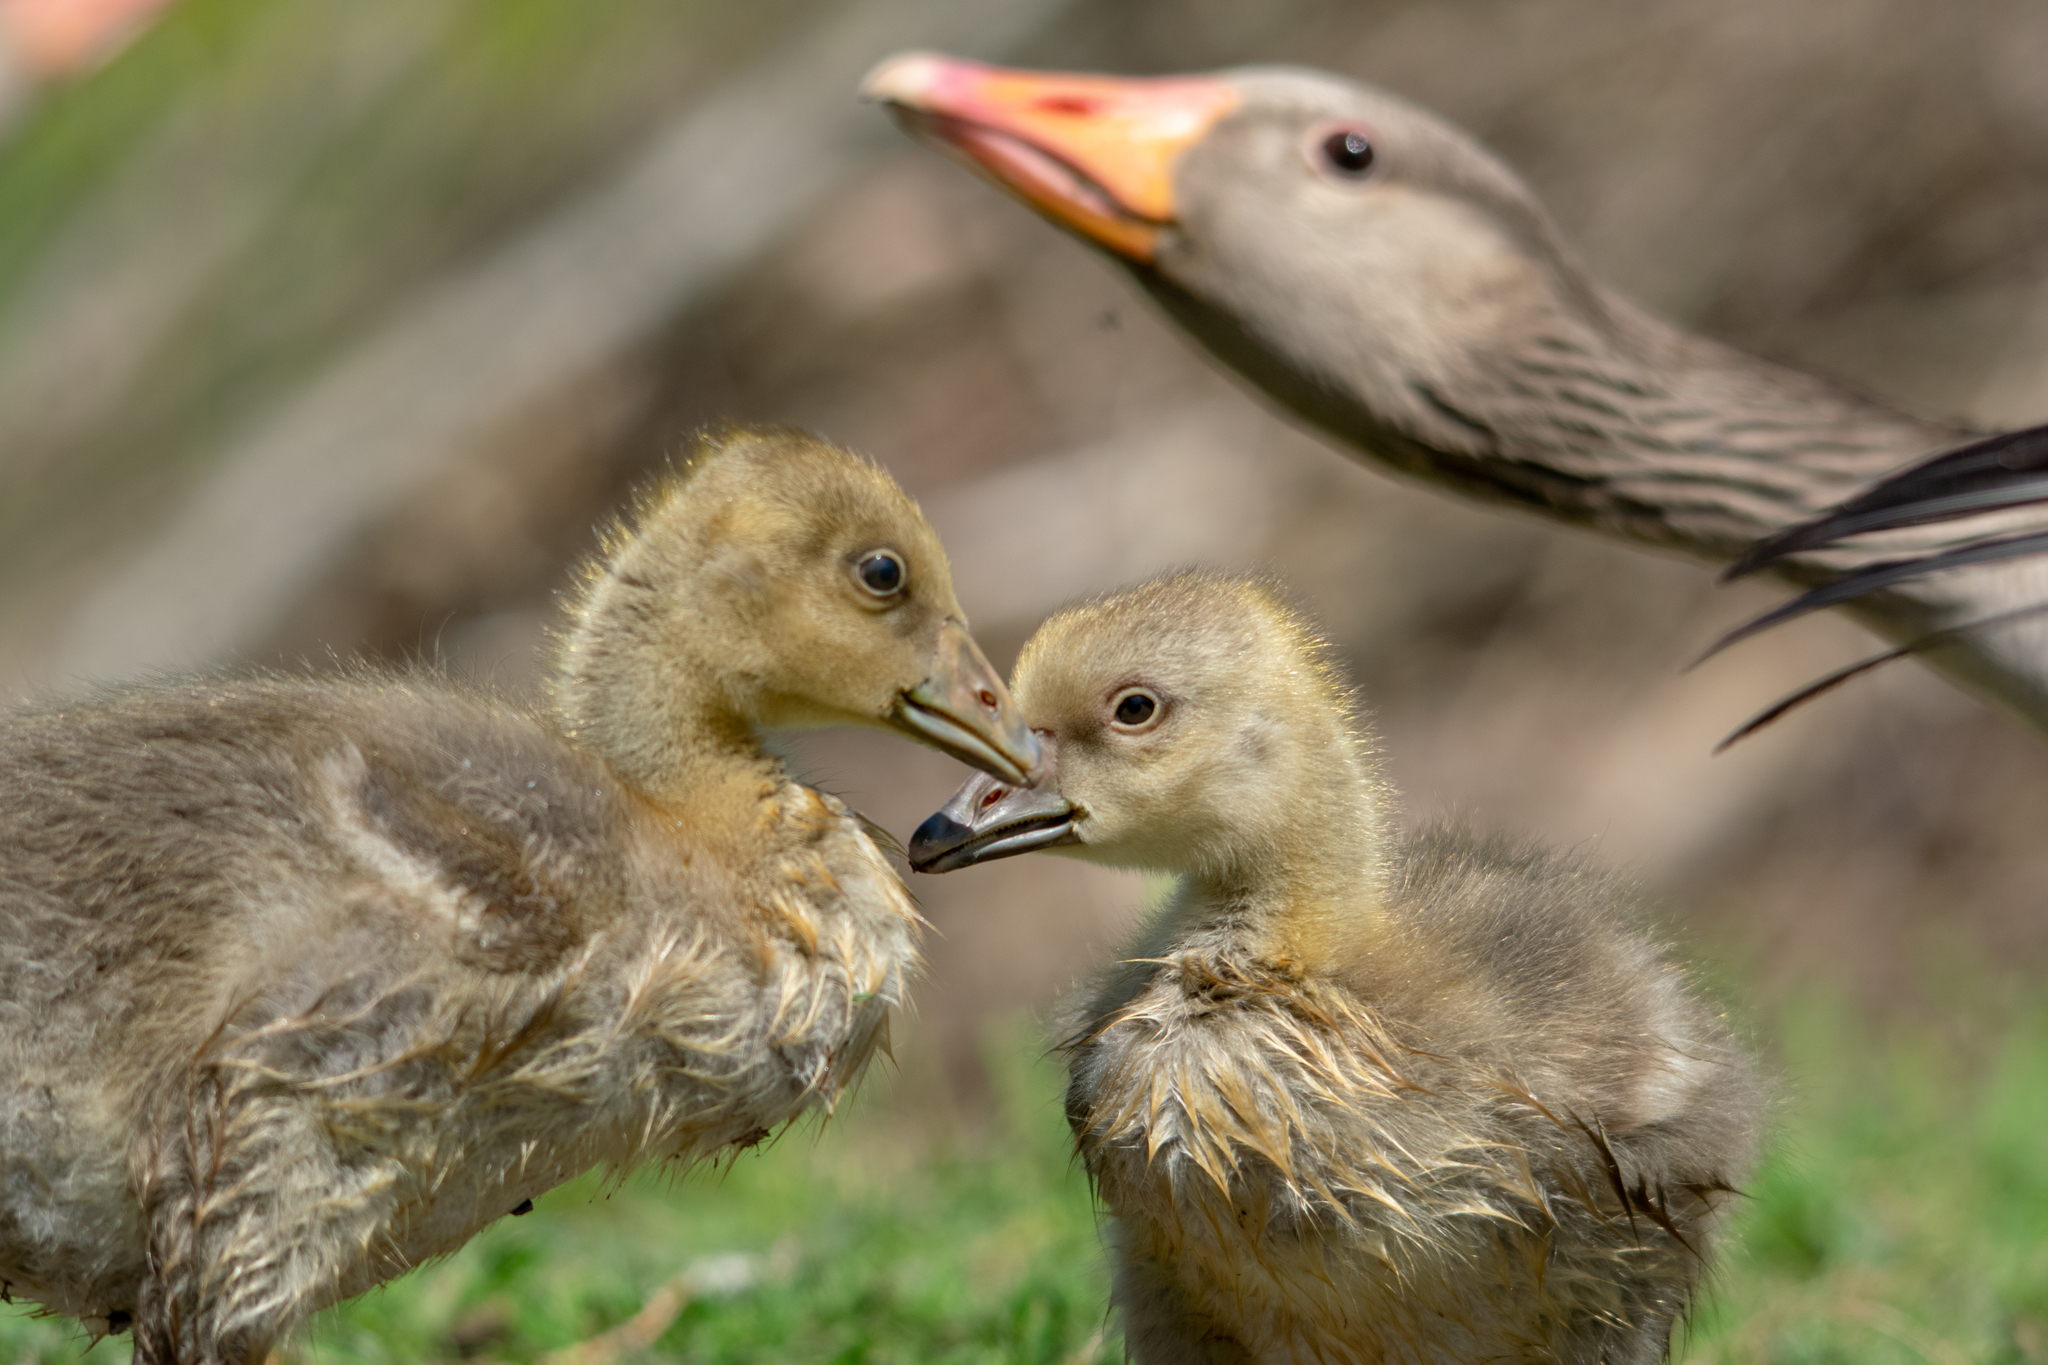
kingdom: Animalia
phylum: Chordata
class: Aves
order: Anseriformes
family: Anatidae
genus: Anser
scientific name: Anser anser
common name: Greylag goose
